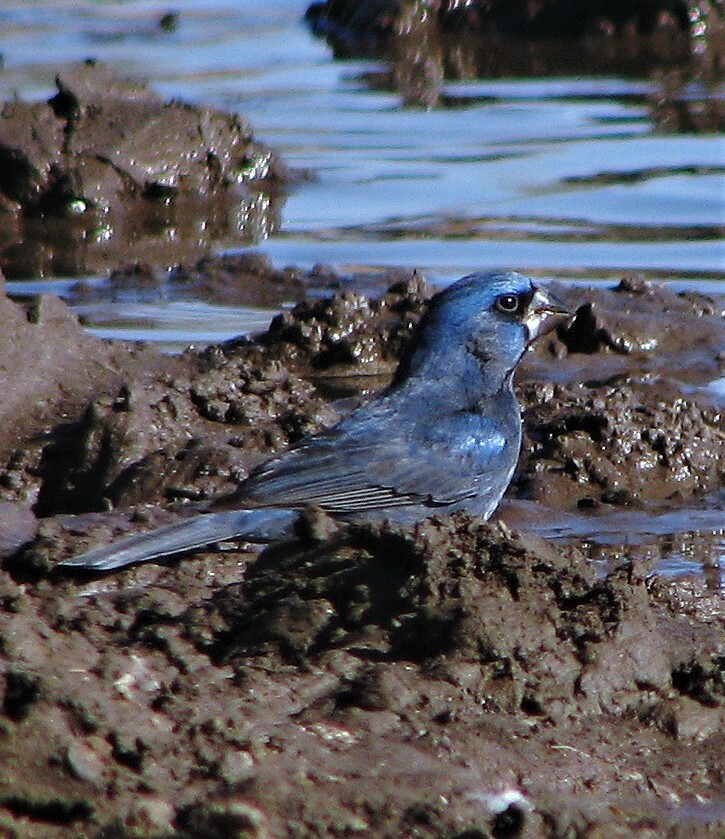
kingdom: Animalia
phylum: Chordata
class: Aves
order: Passeriformes
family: Cardinalidae
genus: Cyanoloxia
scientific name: Cyanoloxia brissonii
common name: Ultramarine grosbeak
